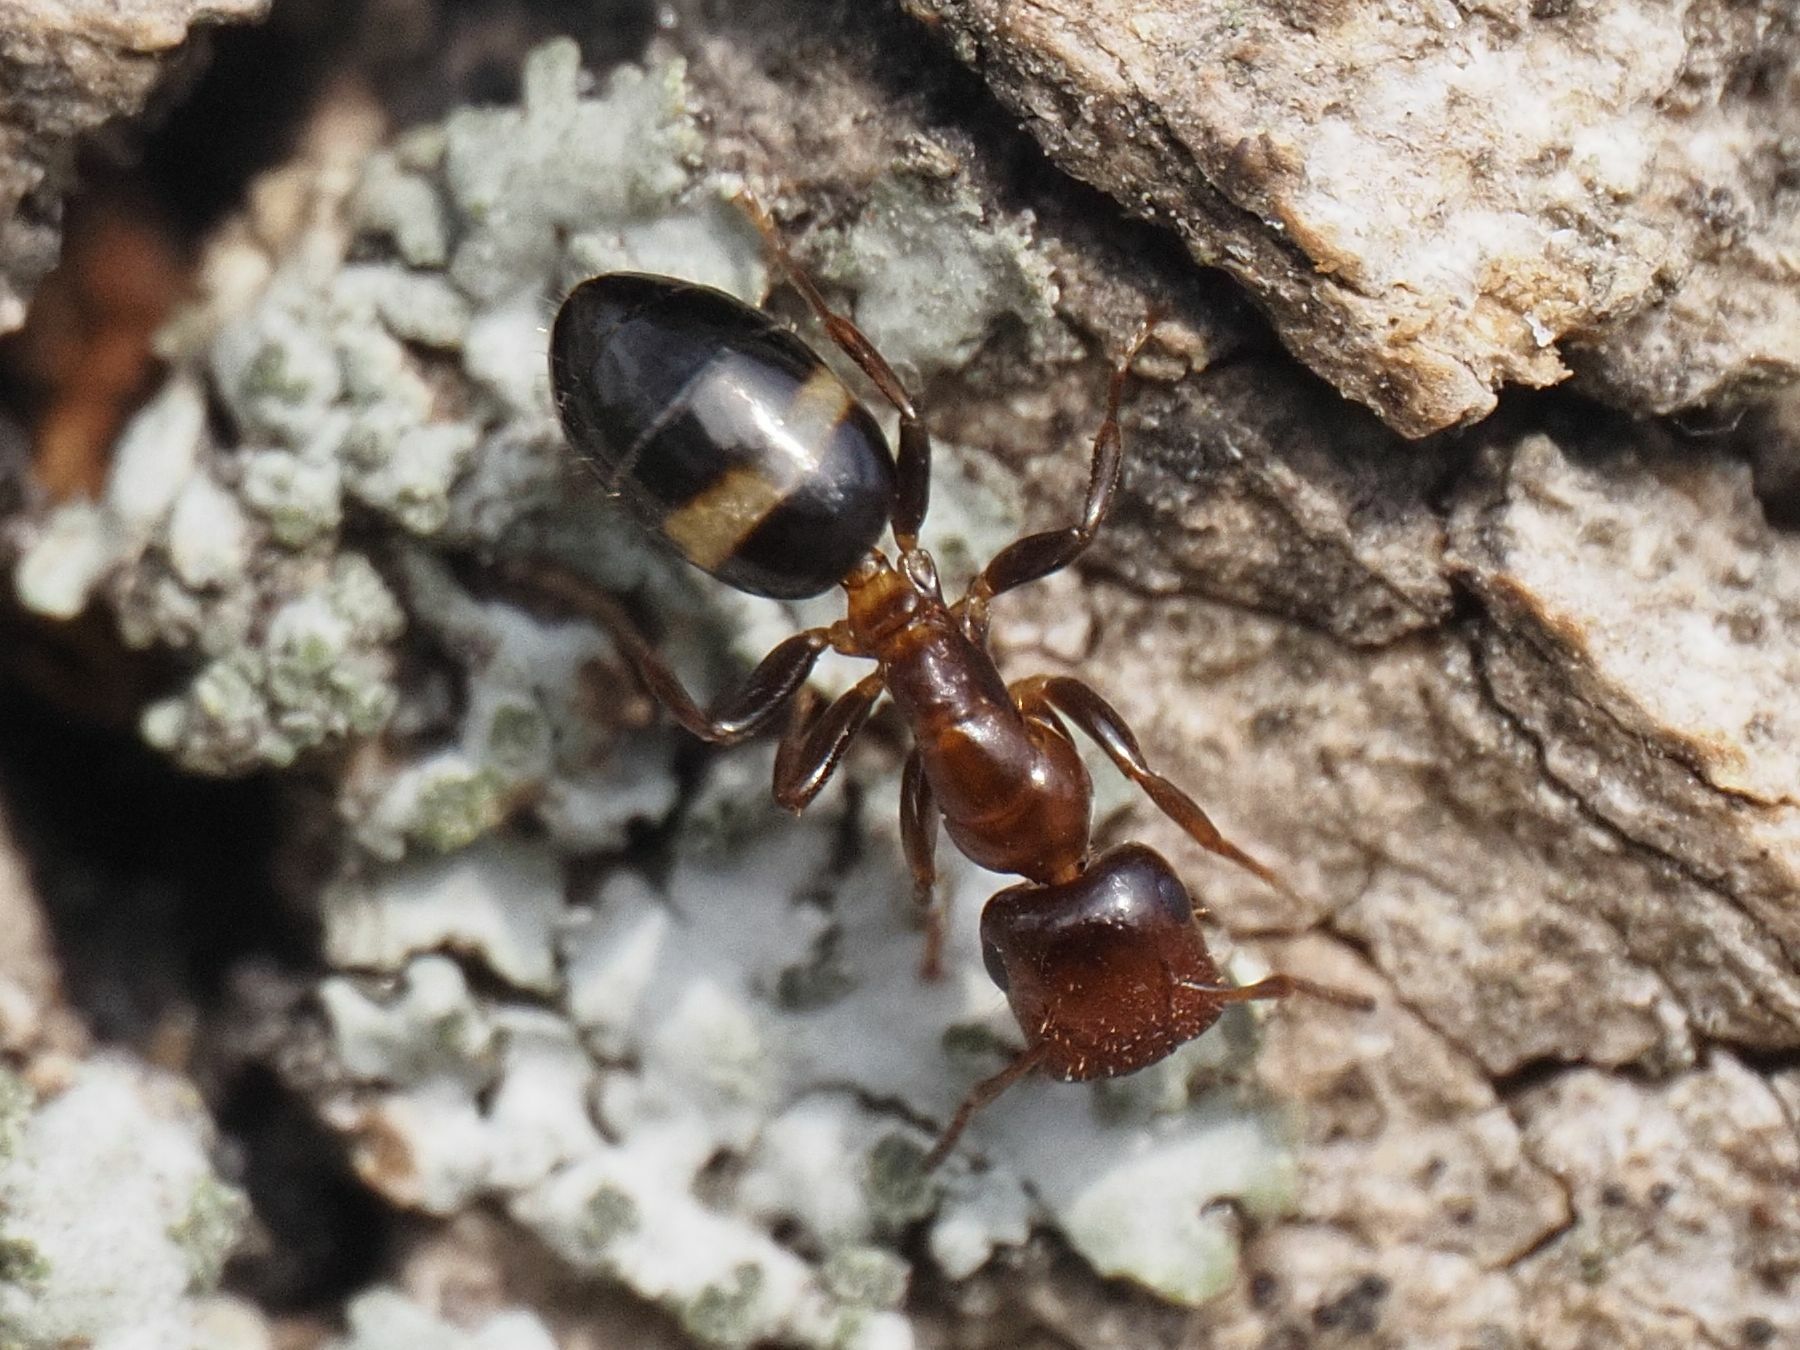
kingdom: Animalia
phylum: Arthropoda
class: Insecta
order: Hymenoptera
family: Formicidae
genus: Camponotus
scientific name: Camponotus truncatus
